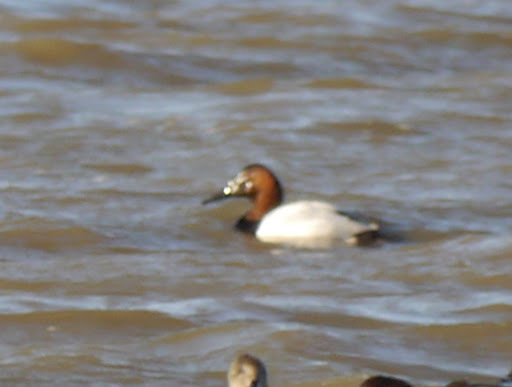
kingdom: Animalia
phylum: Chordata
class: Aves
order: Anseriformes
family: Anatidae
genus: Aythya
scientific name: Aythya valisineria
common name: Canvasback
